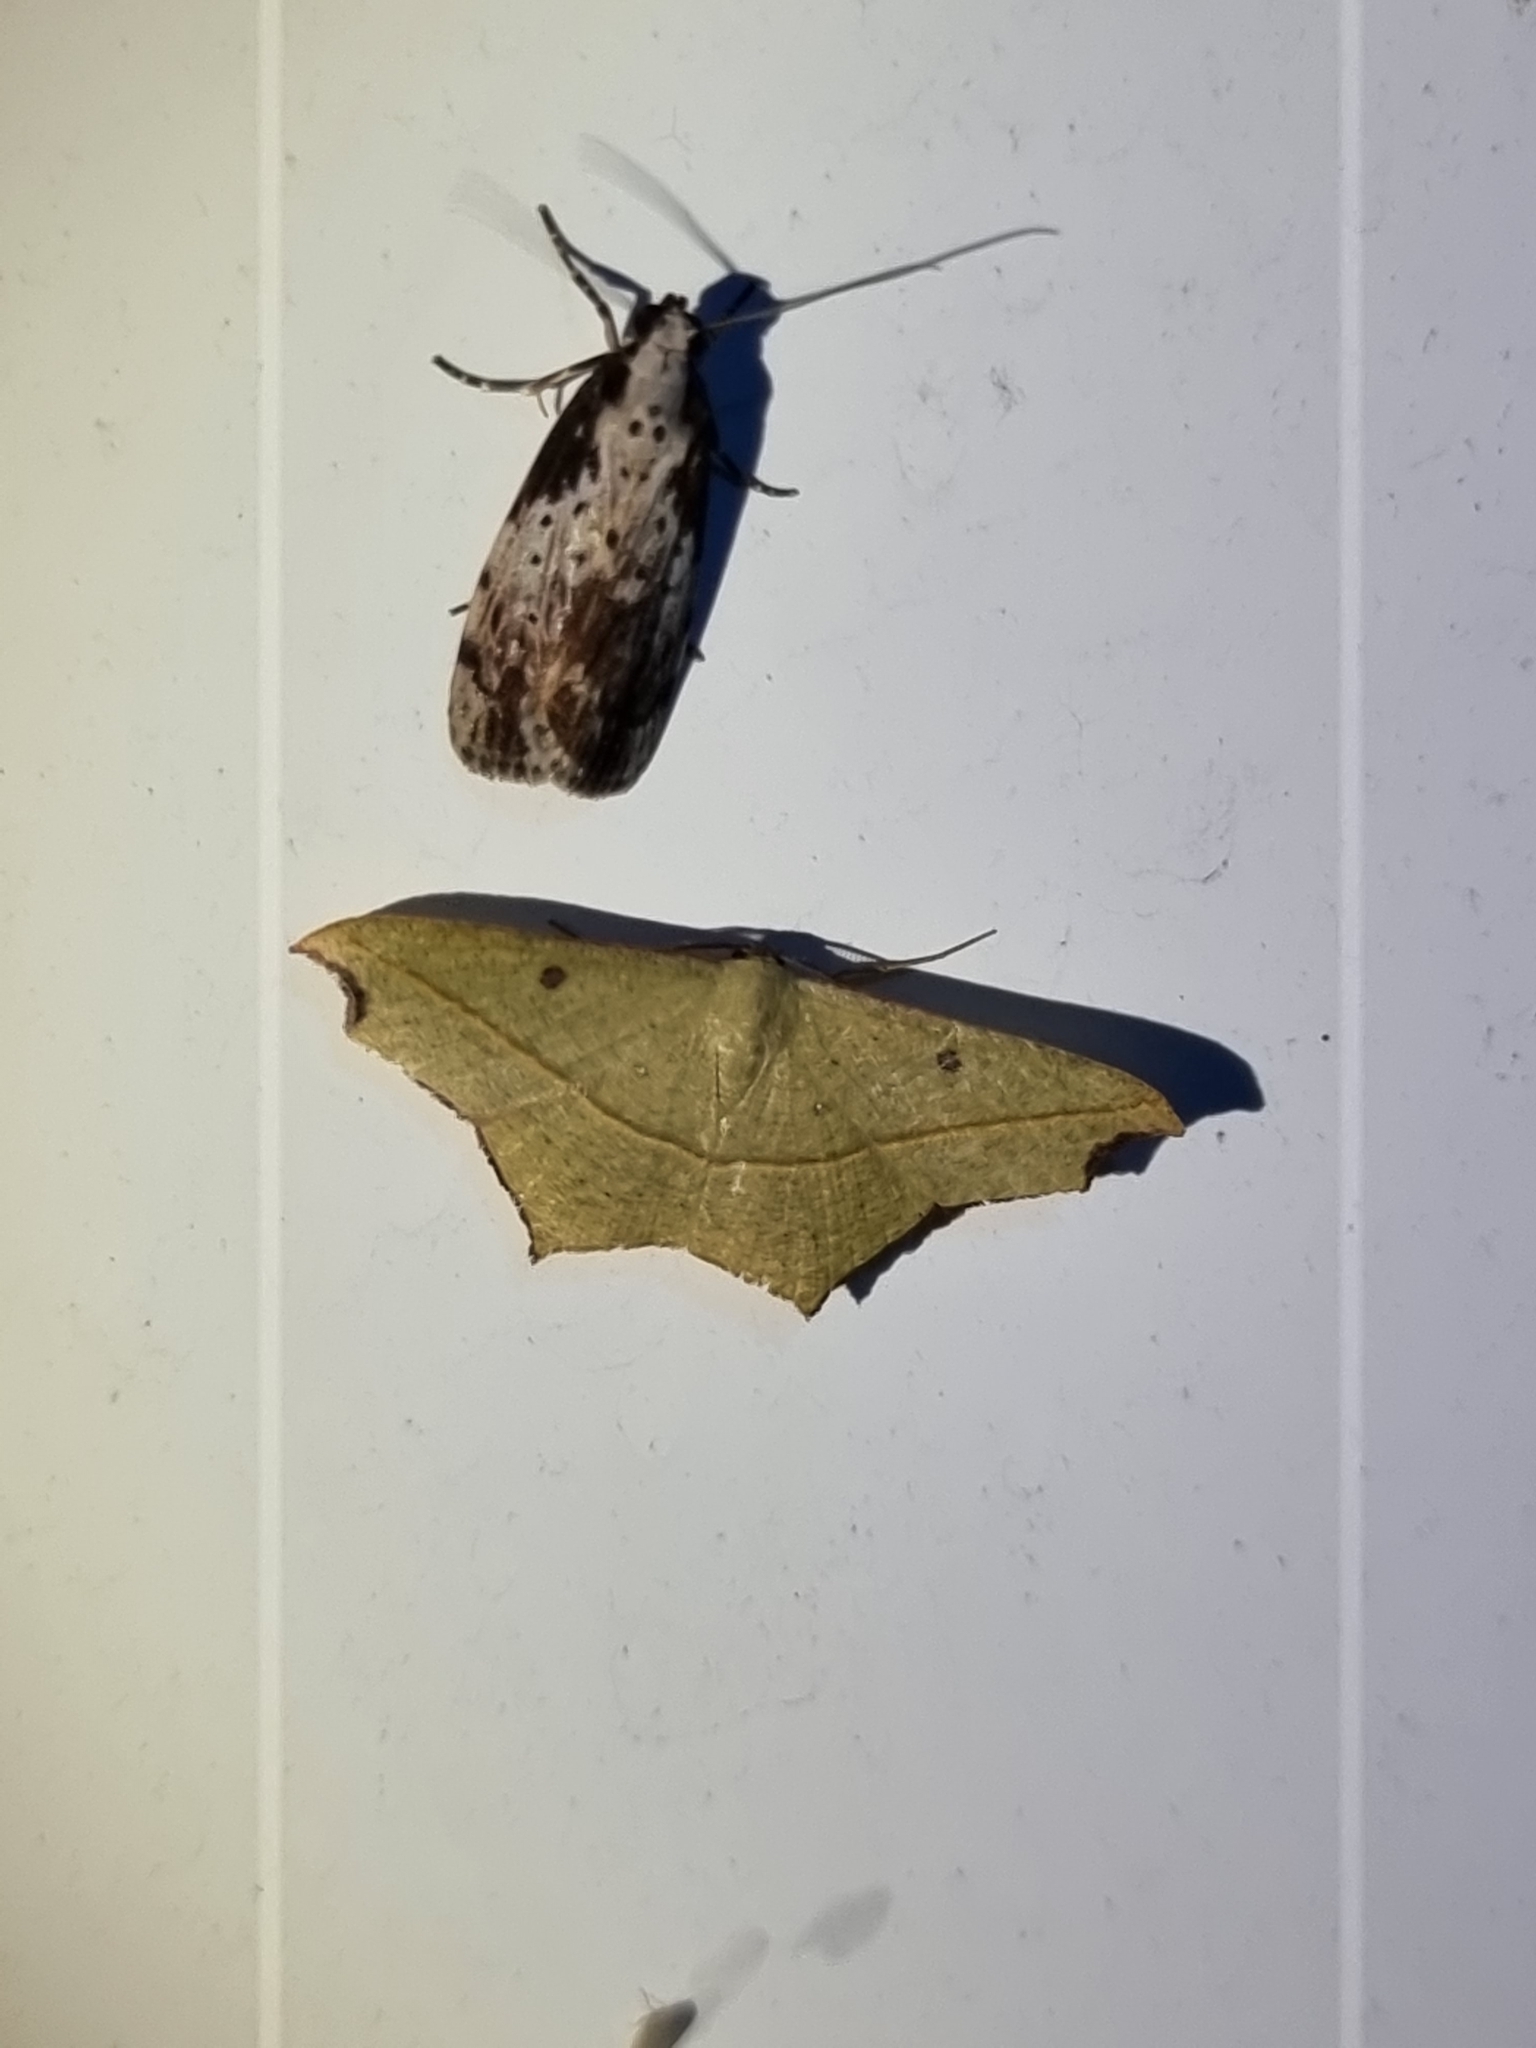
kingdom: Animalia
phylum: Arthropoda
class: Insecta
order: Lepidoptera
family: Geometridae
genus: Traminda
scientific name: Traminda aventiaria
